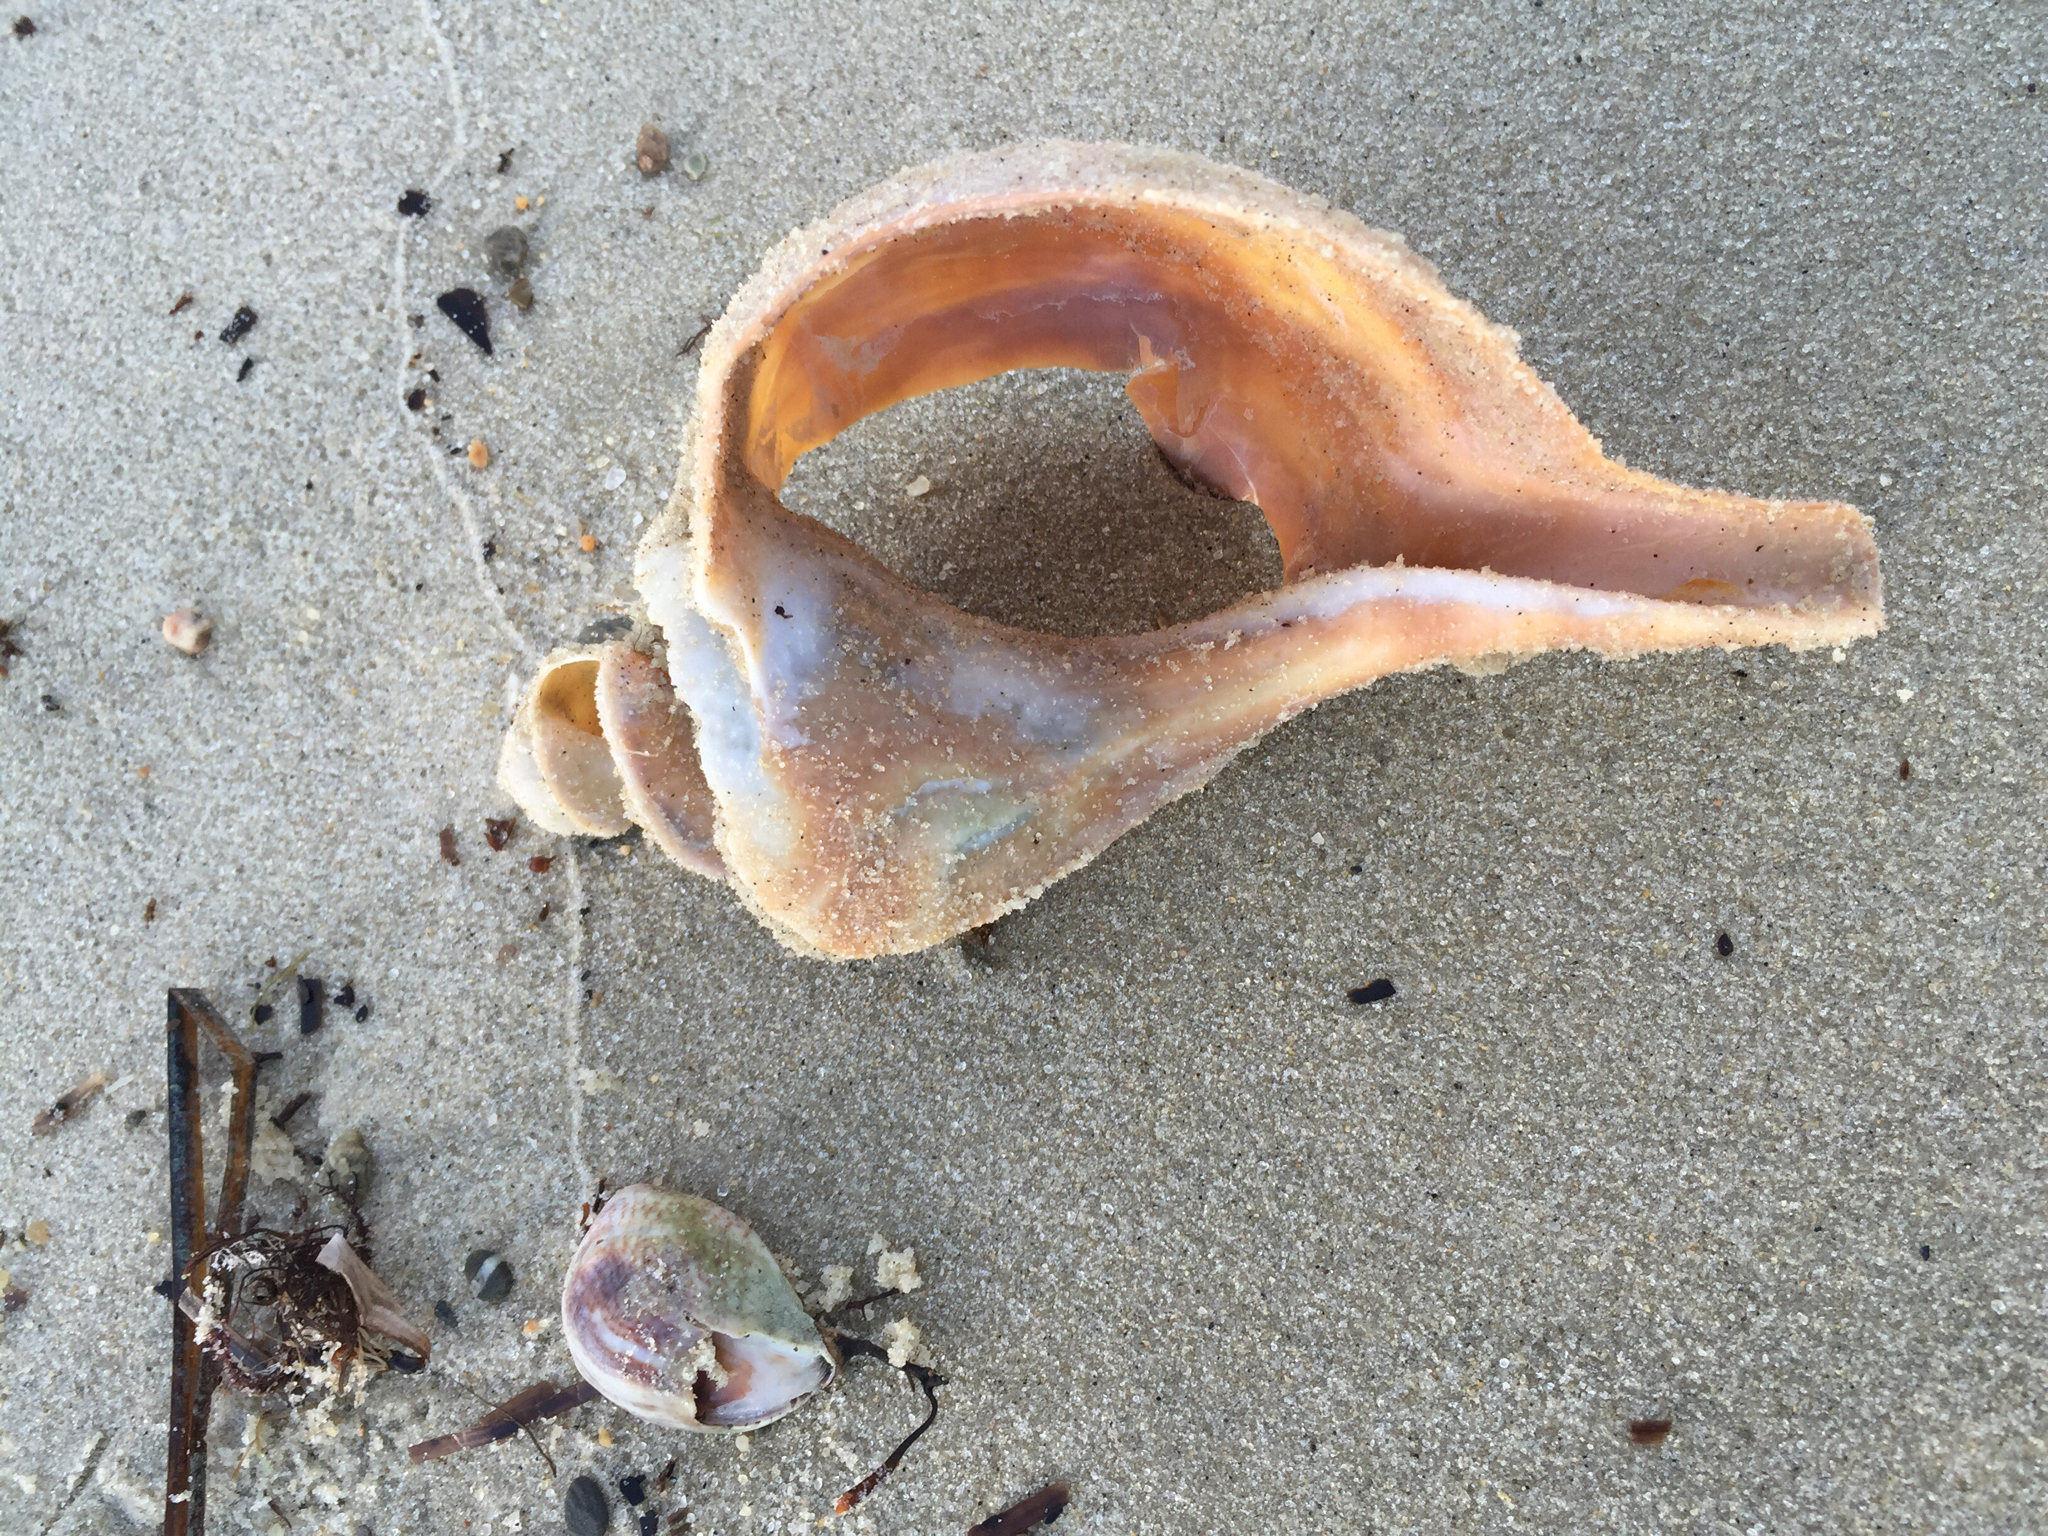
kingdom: Animalia
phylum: Mollusca
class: Gastropoda
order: Neogastropoda
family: Busyconidae
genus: Busycotypus
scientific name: Busycotypus canaliculatus
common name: Channeled whelk
